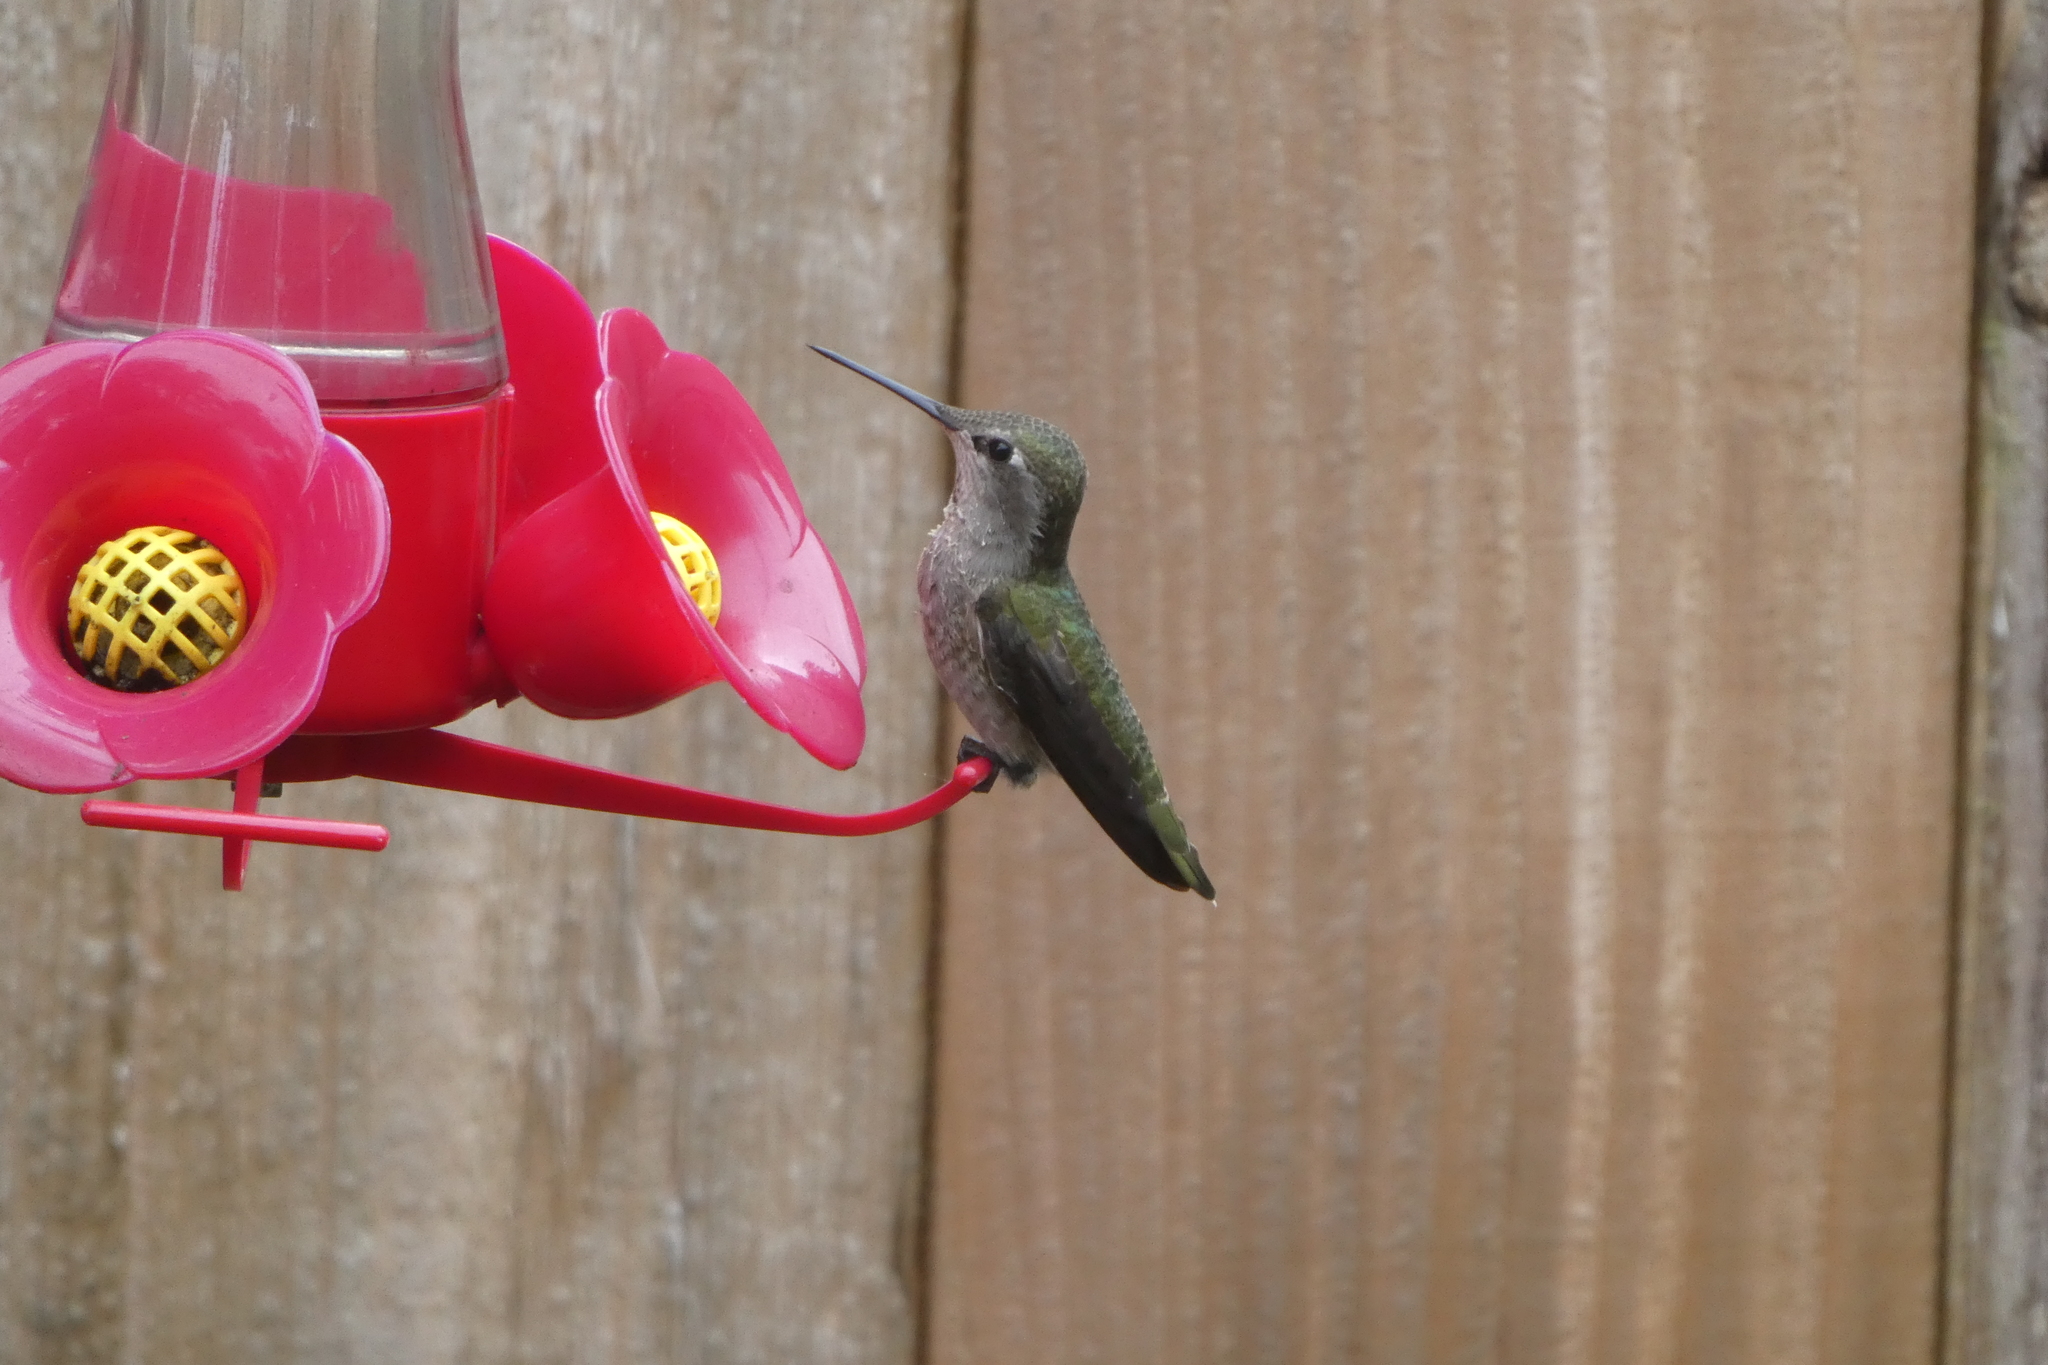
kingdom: Animalia
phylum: Chordata
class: Aves
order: Apodiformes
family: Trochilidae
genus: Calypte
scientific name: Calypte anna
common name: Anna's hummingbird
